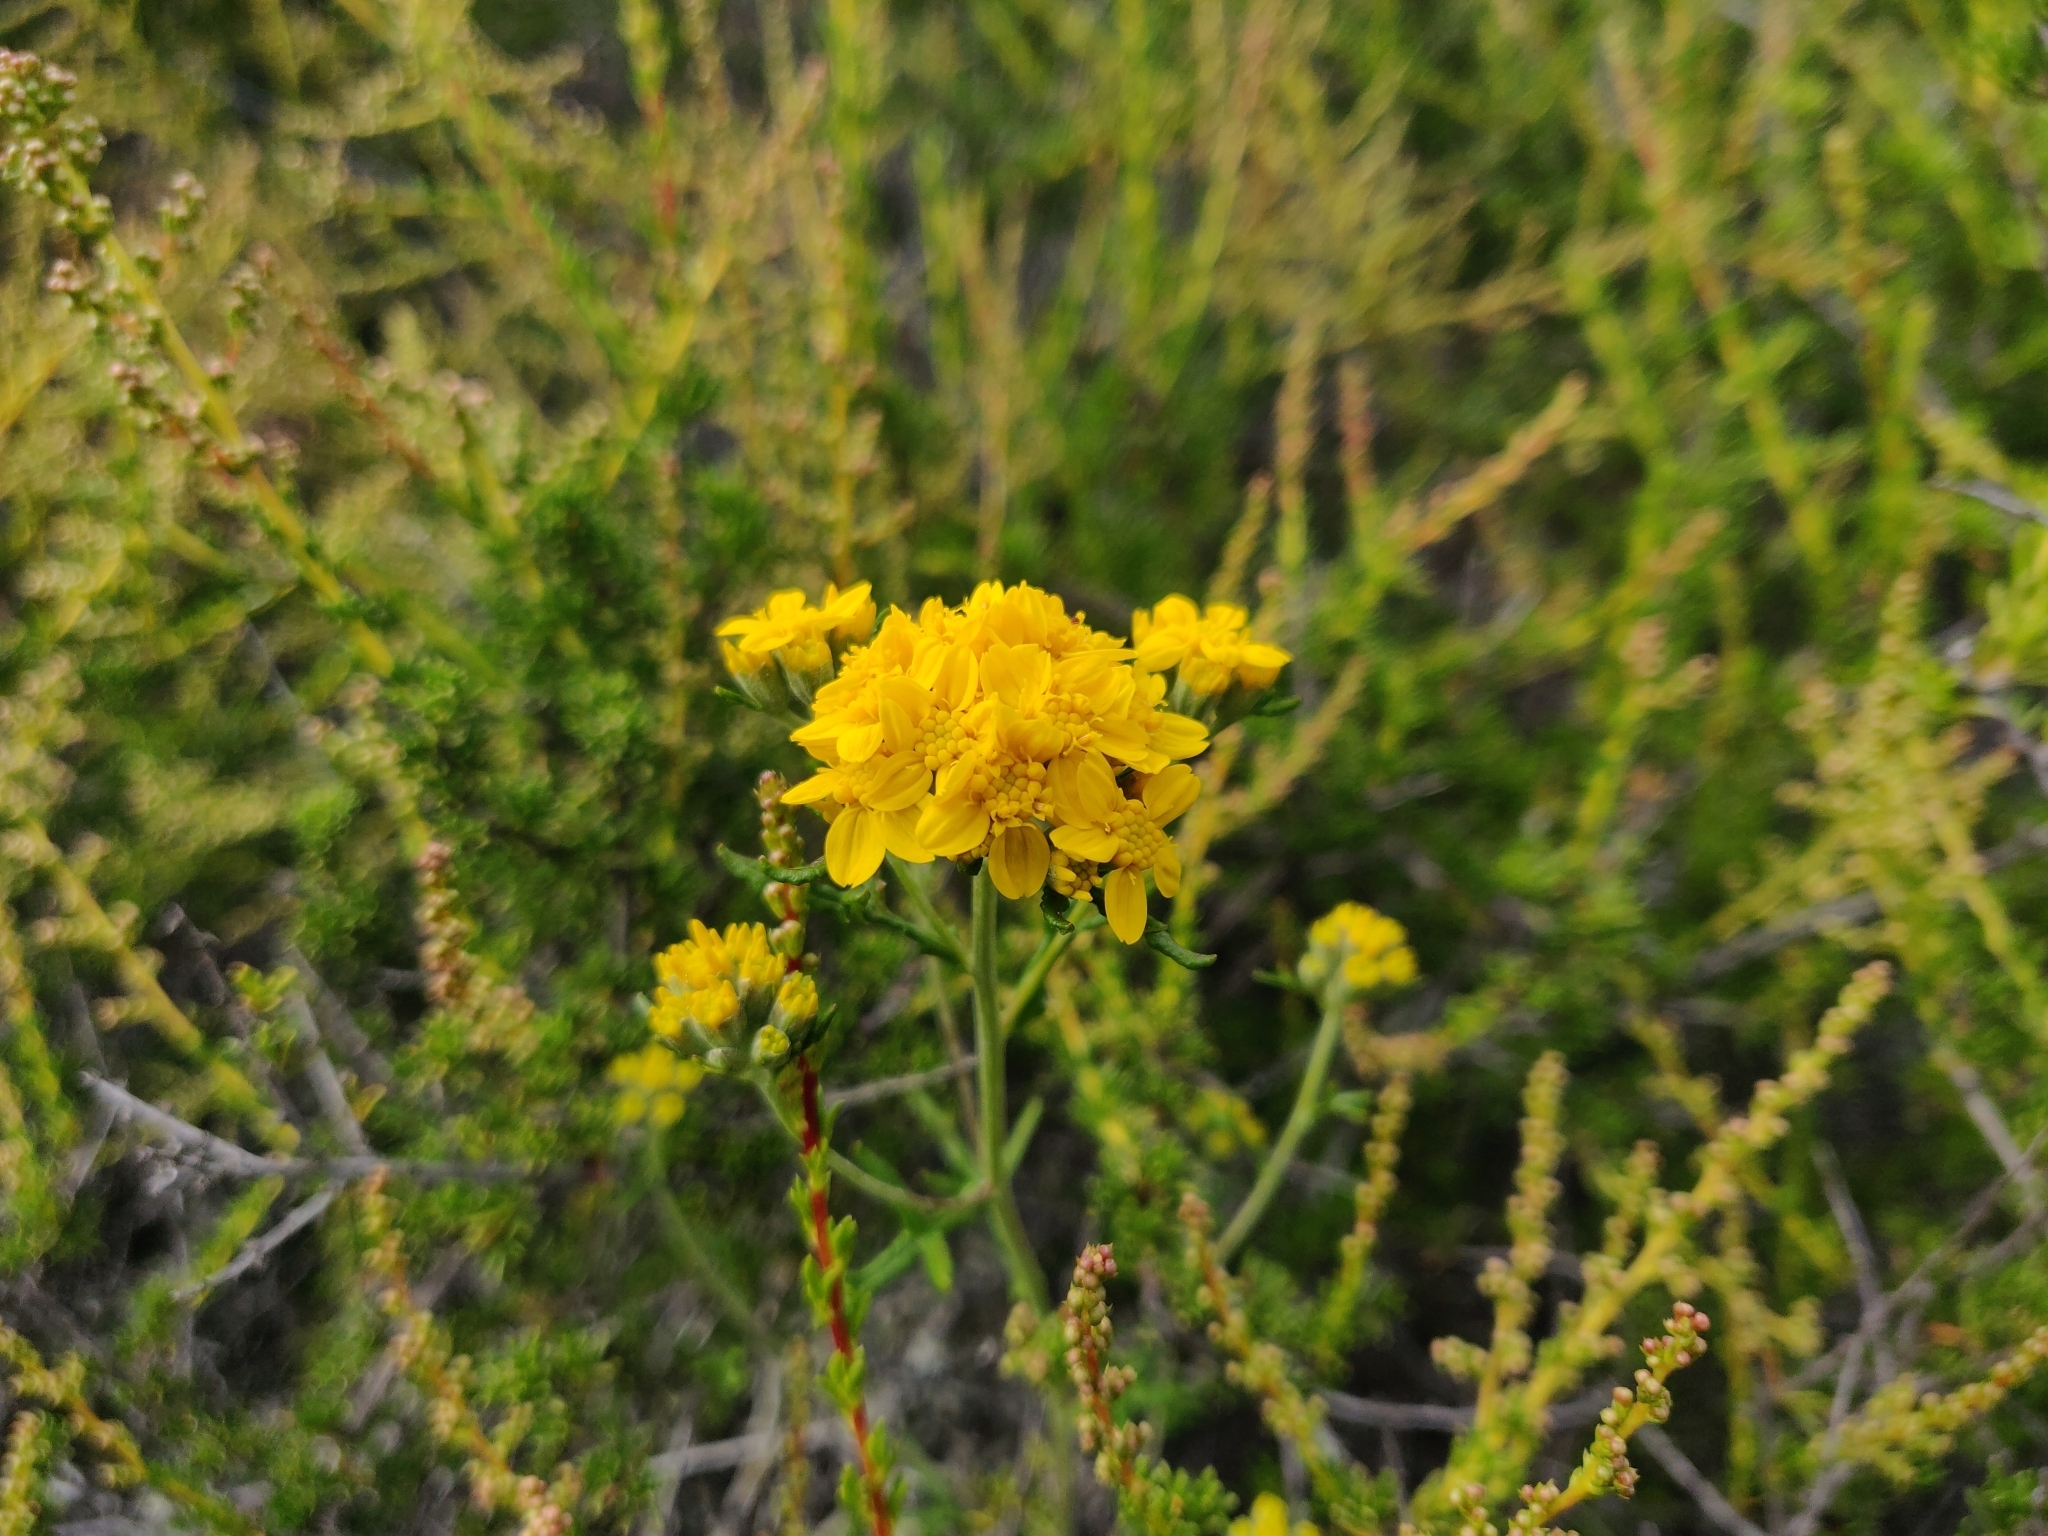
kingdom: Plantae
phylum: Tracheophyta
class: Magnoliopsida
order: Asterales
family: Asteraceae
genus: Eriophyllum
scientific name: Eriophyllum confertiflorum
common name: Golden-yarrow
